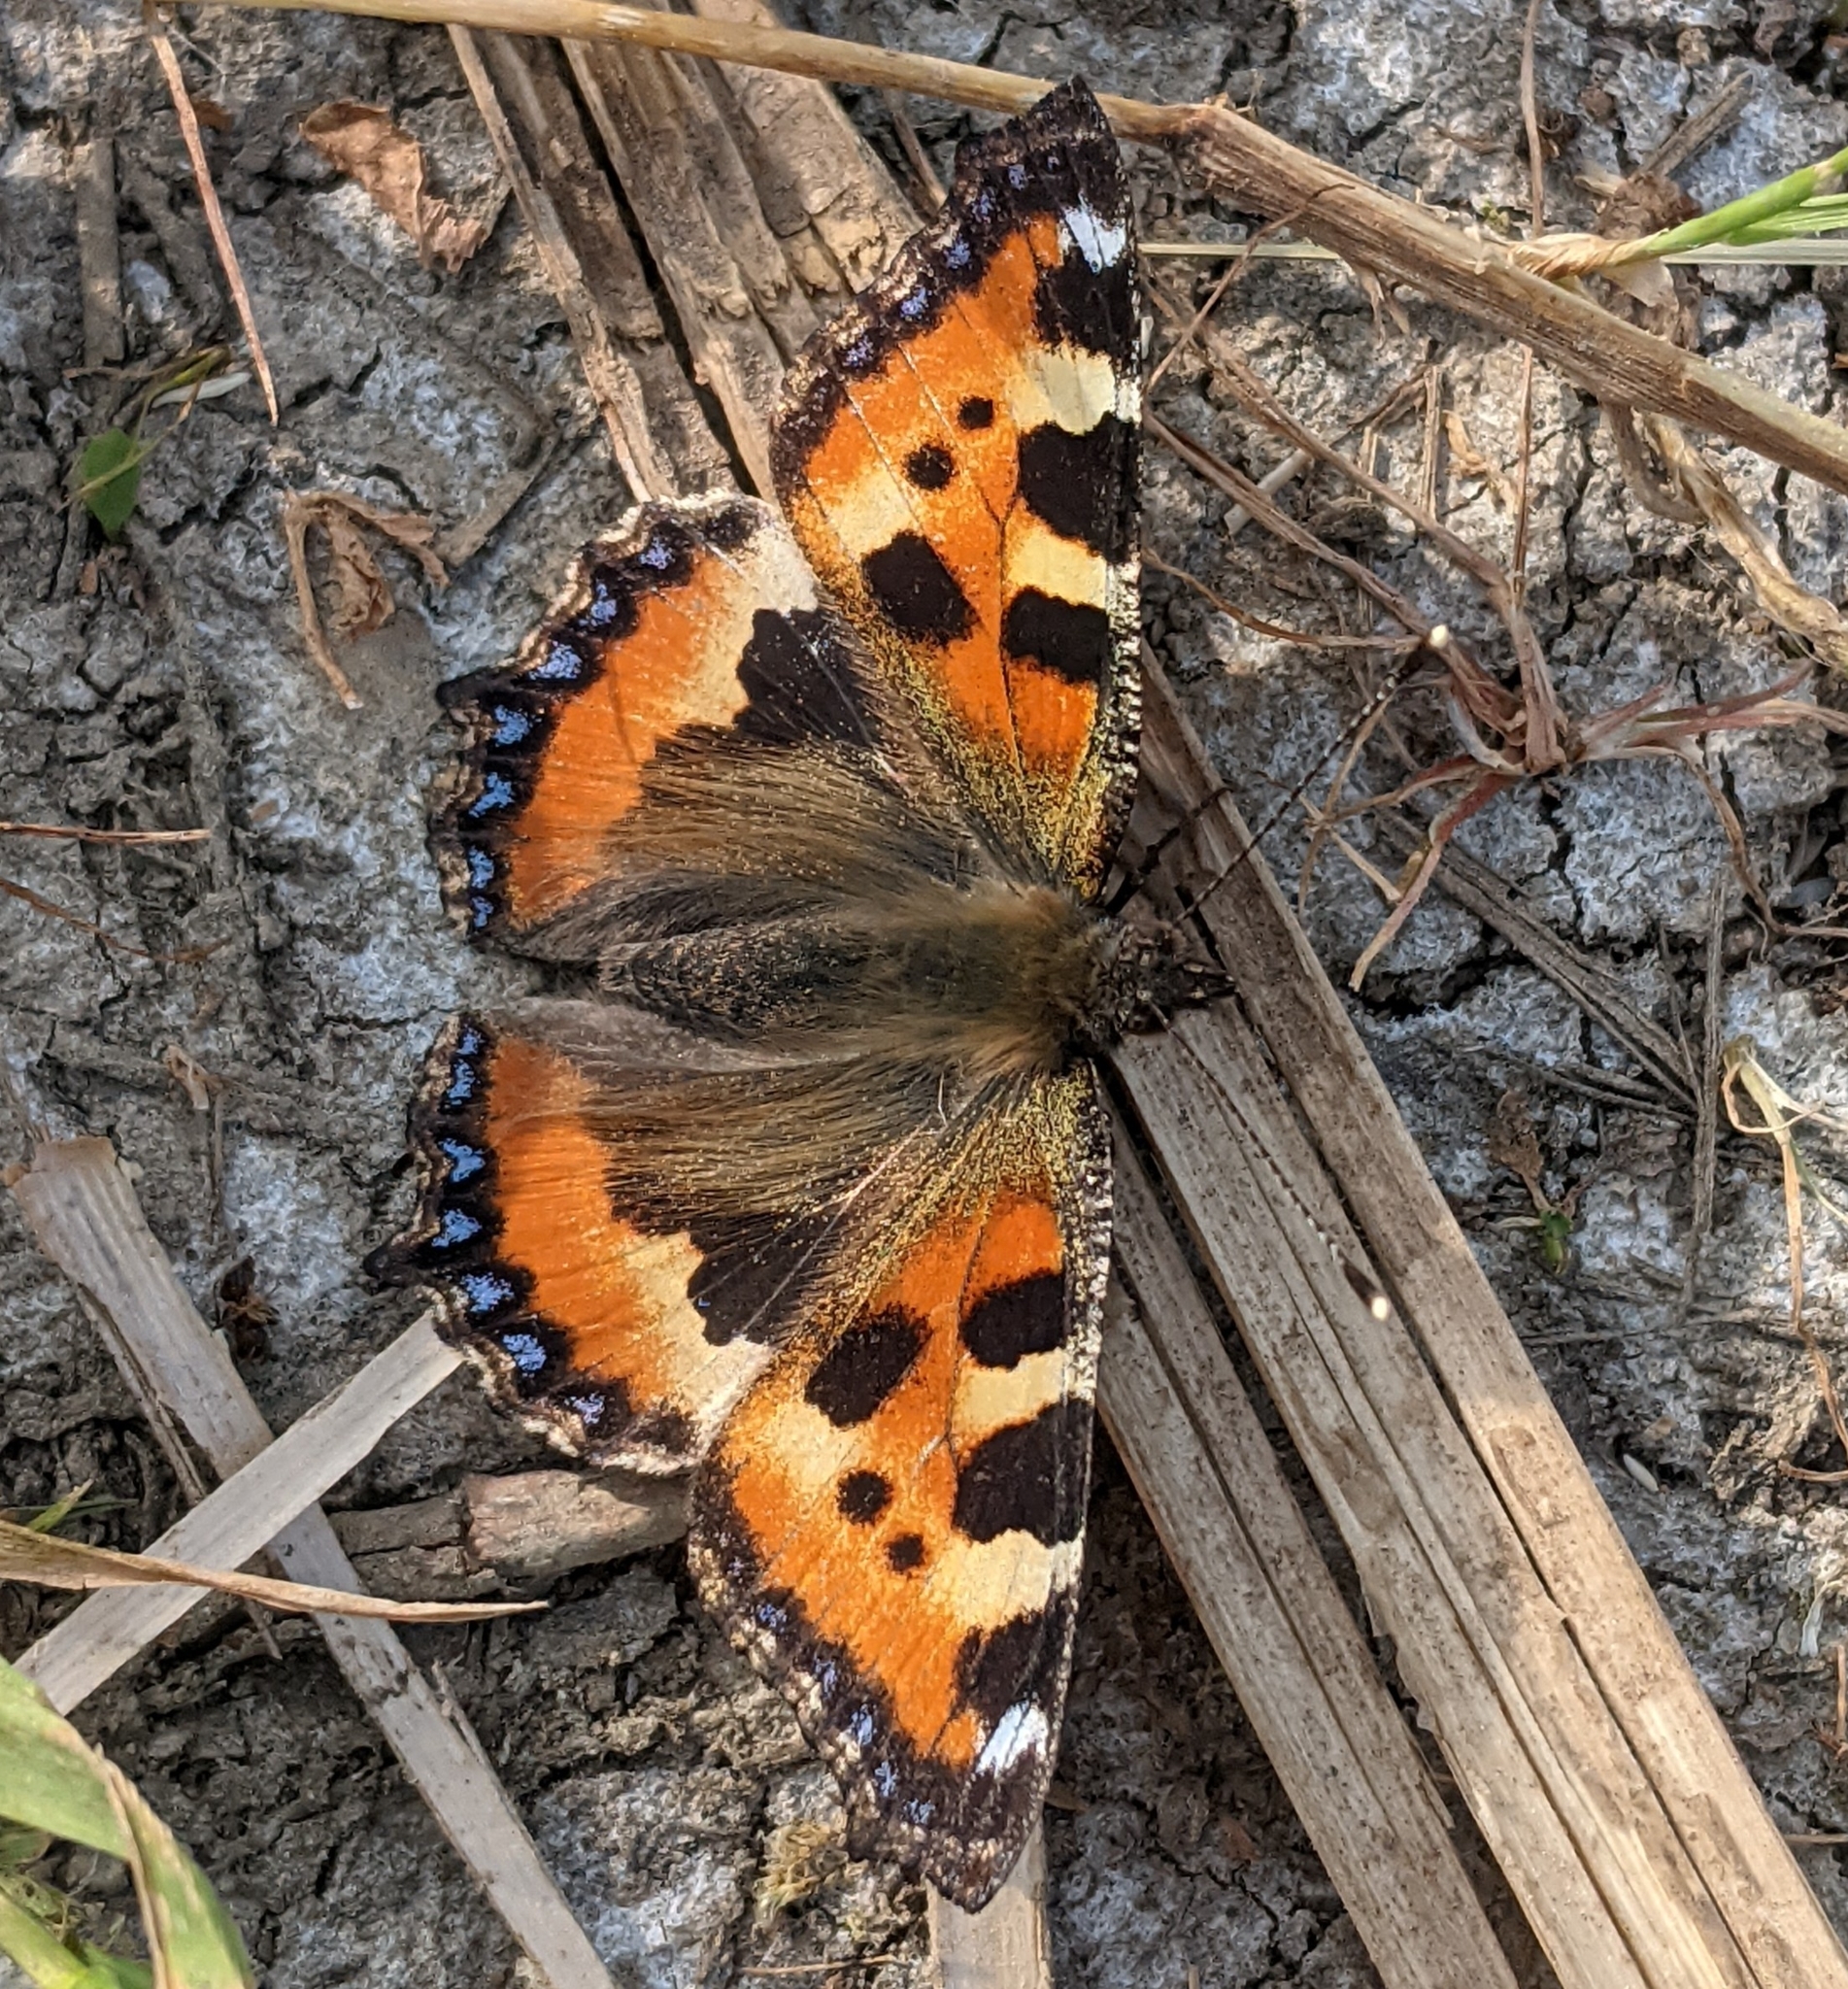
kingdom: Animalia
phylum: Arthropoda
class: Insecta
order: Lepidoptera
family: Nymphalidae
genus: Aglais
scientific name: Aglais urticae
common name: Small tortoiseshell
